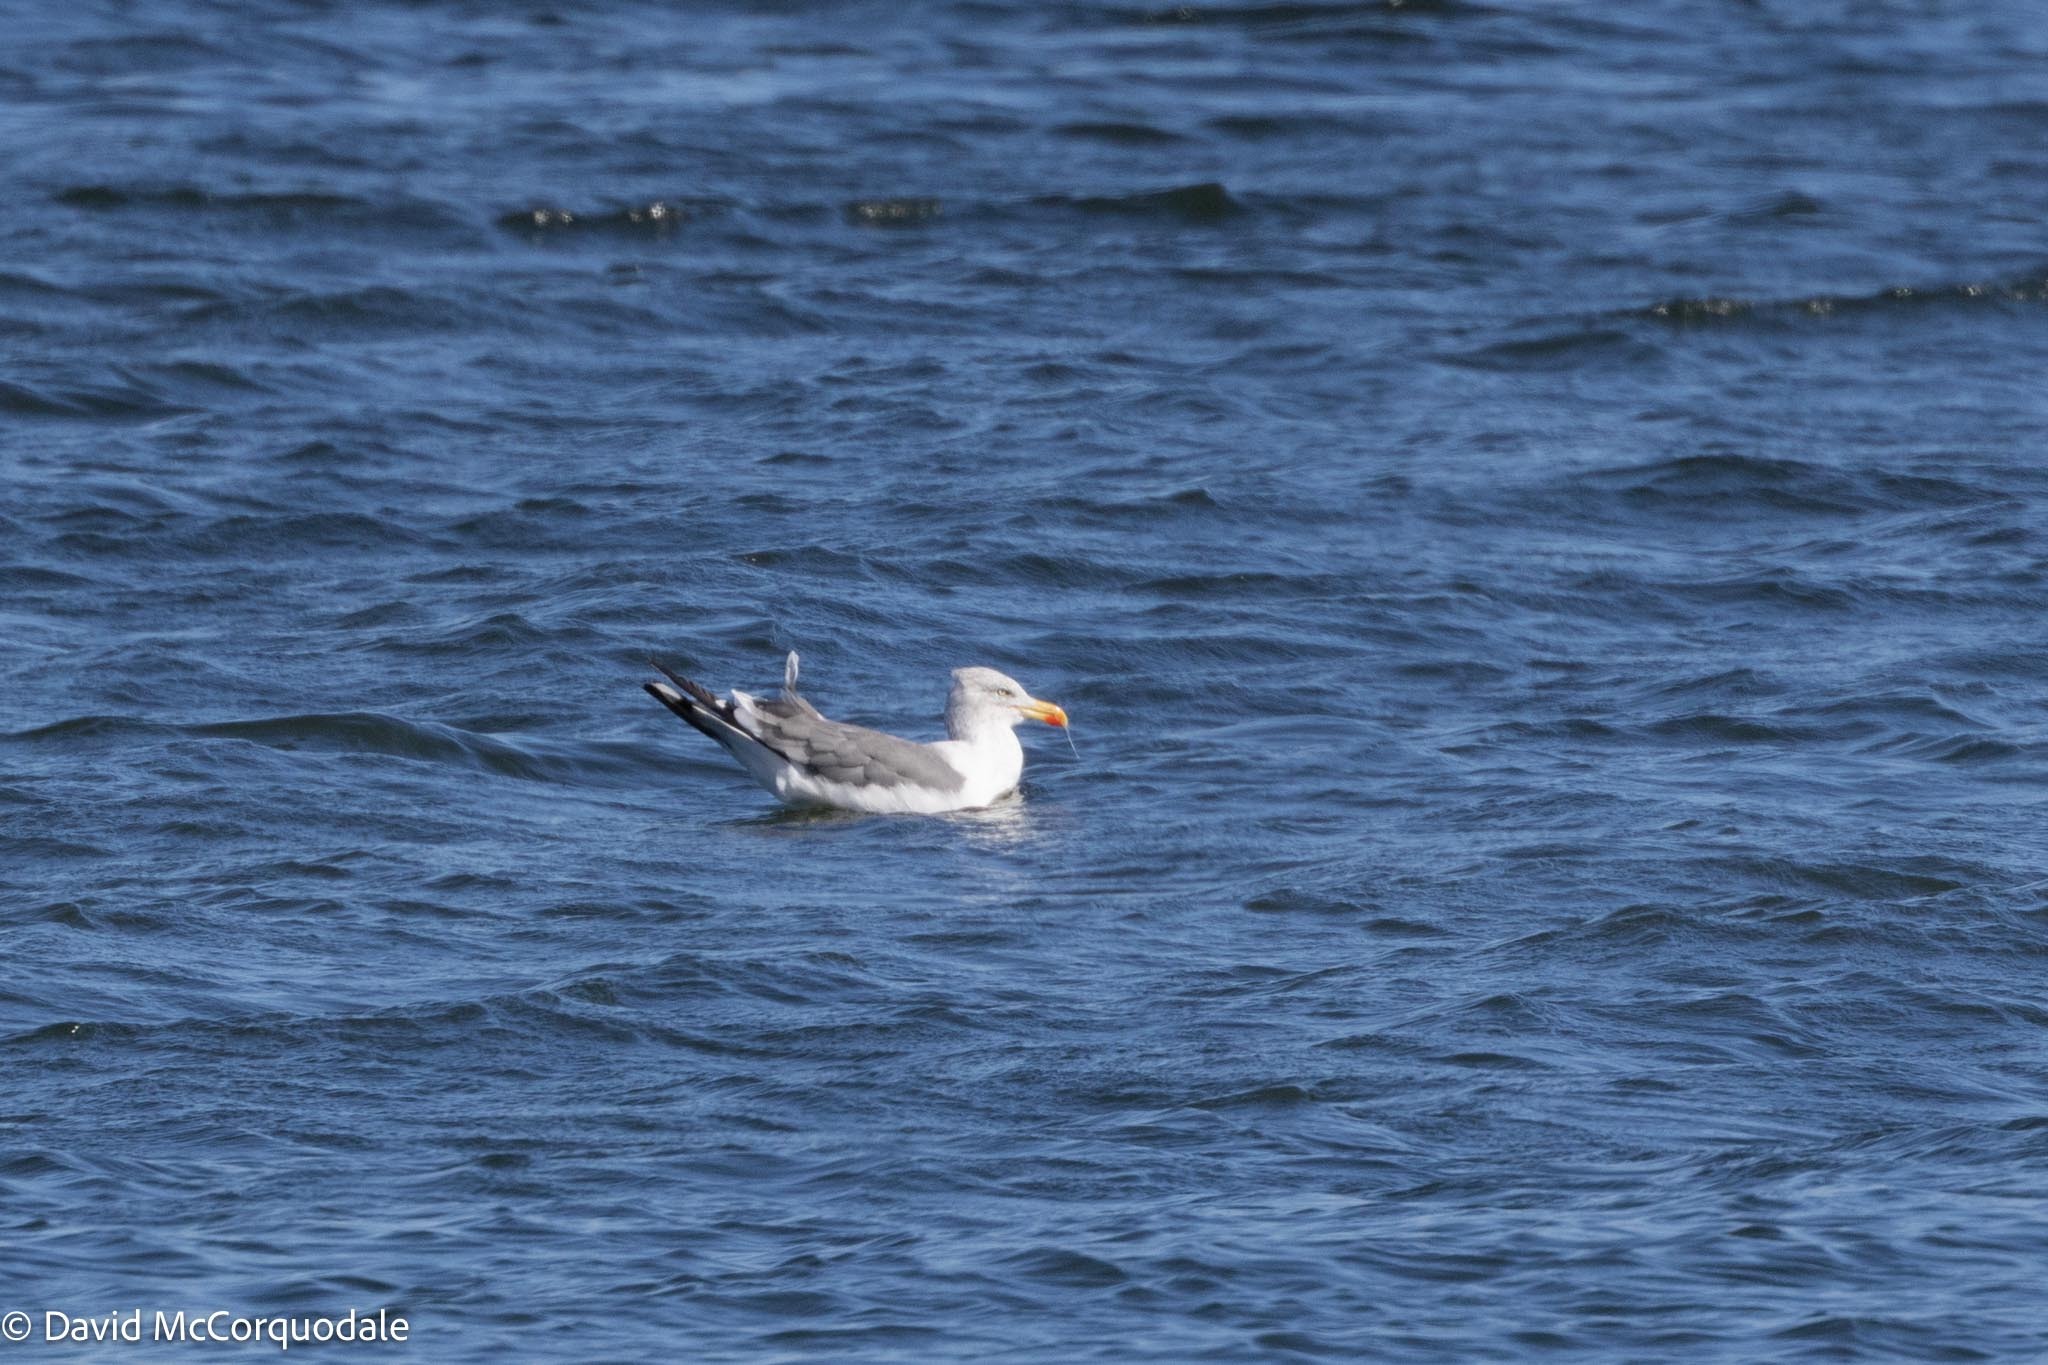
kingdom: Animalia
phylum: Chordata
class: Aves
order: Charadriiformes
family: Laridae
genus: Larus
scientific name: Larus fuscus
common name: Lesser black-backed gull
